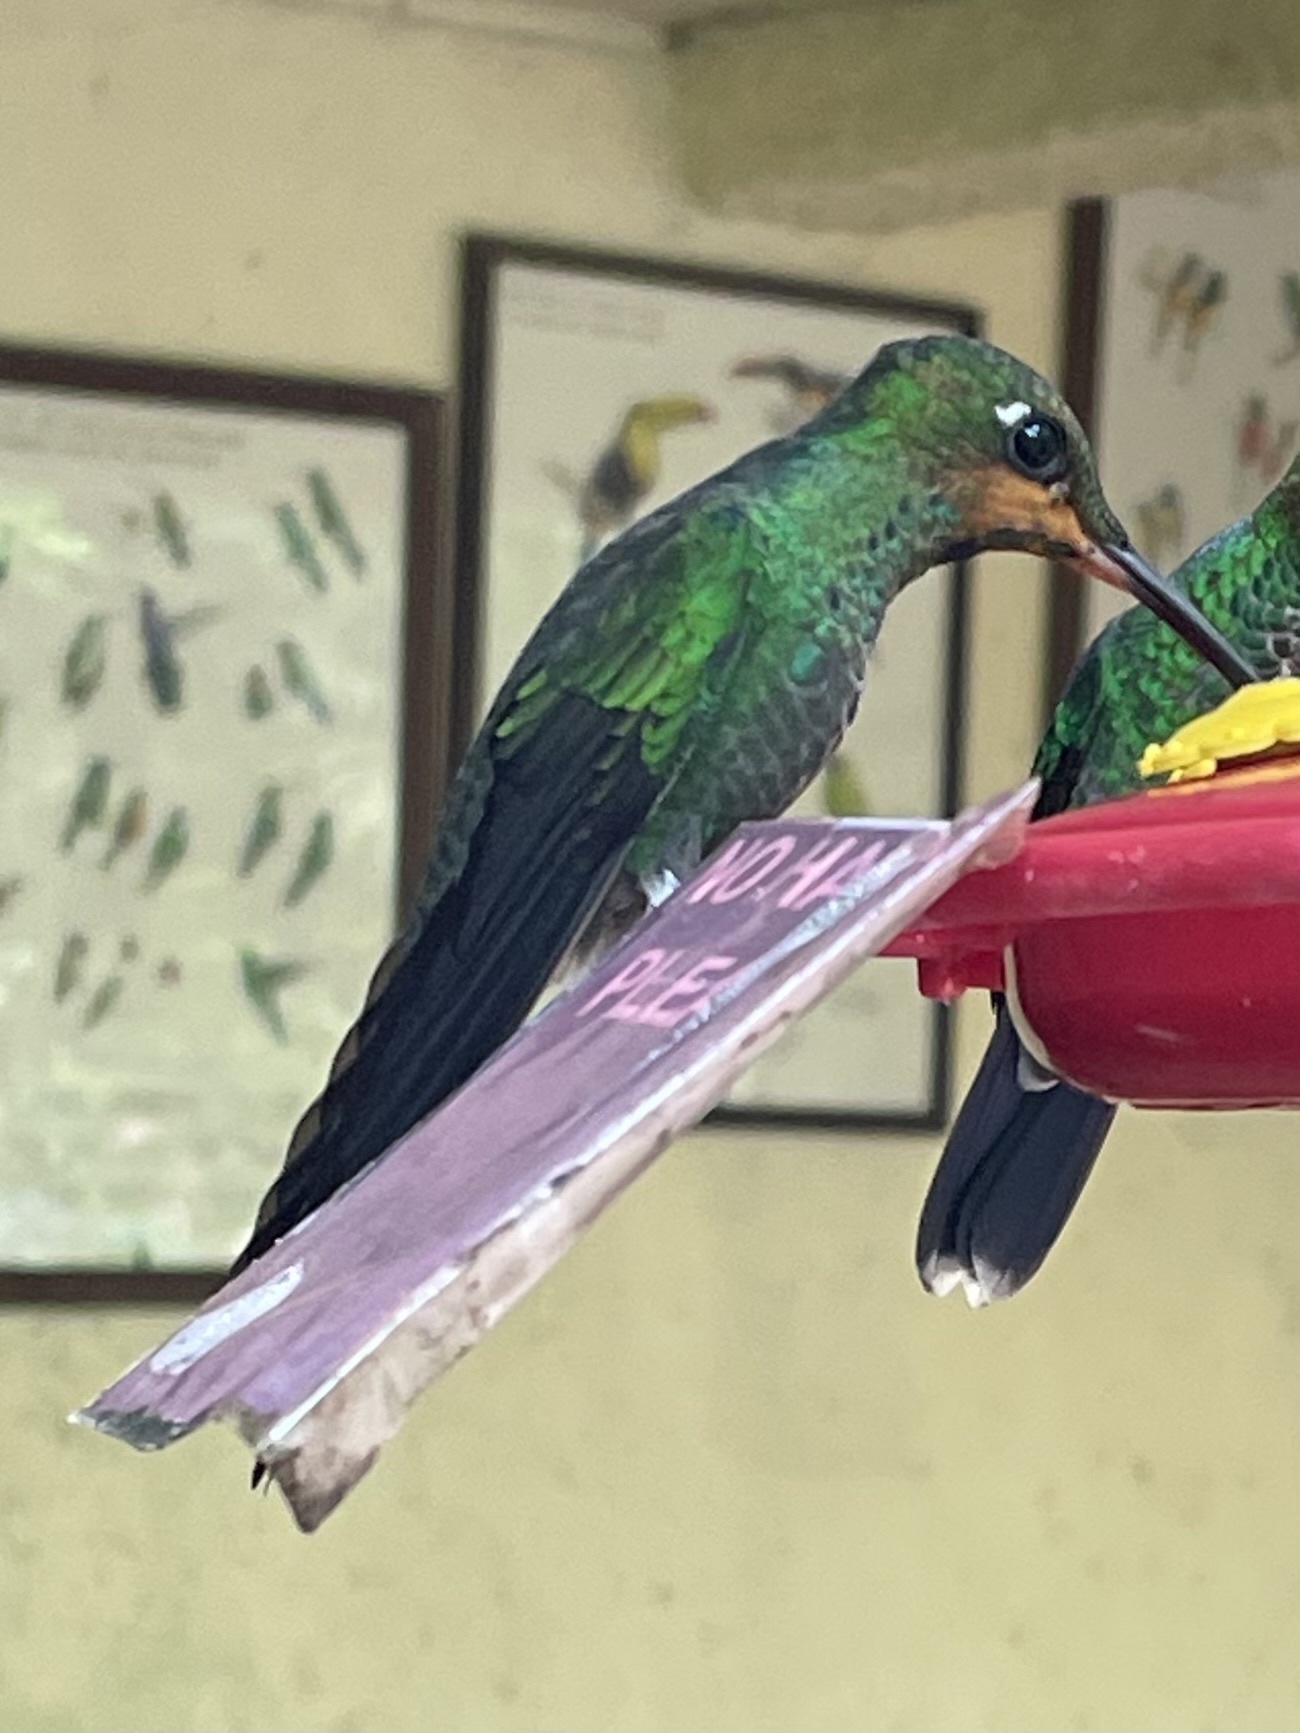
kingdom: Animalia
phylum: Chordata
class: Aves
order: Apodiformes
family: Trochilidae
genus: Heliodoxa
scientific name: Heliodoxa jacula
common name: Green-crowned brilliant
